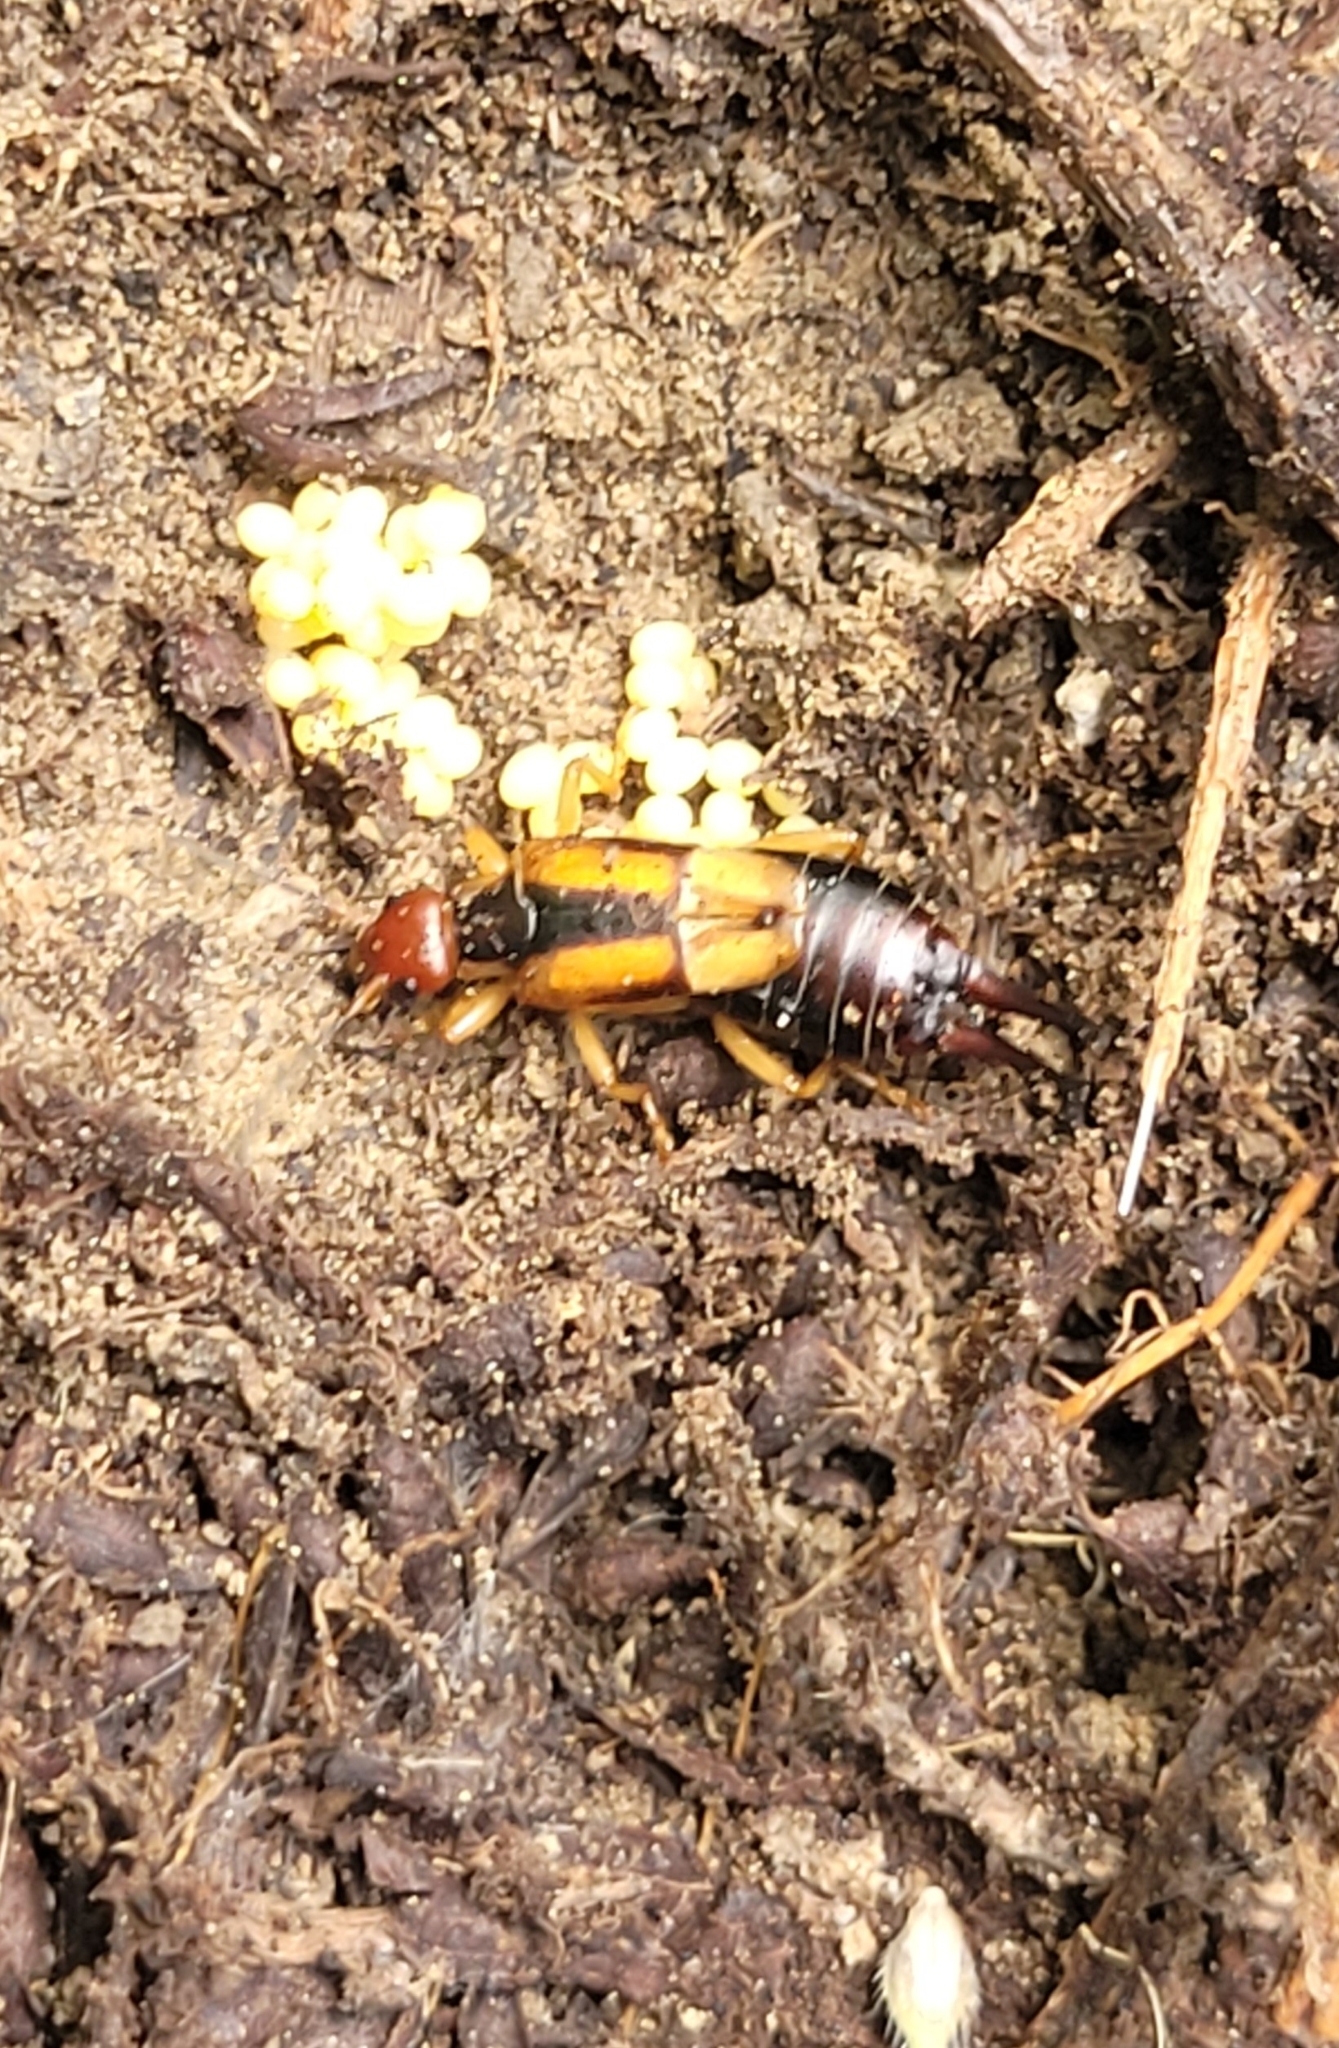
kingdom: Animalia
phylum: Arthropoda
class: Insecta
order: Dermaptera
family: Forficulidae
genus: Forficula
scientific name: Forficula tomis
